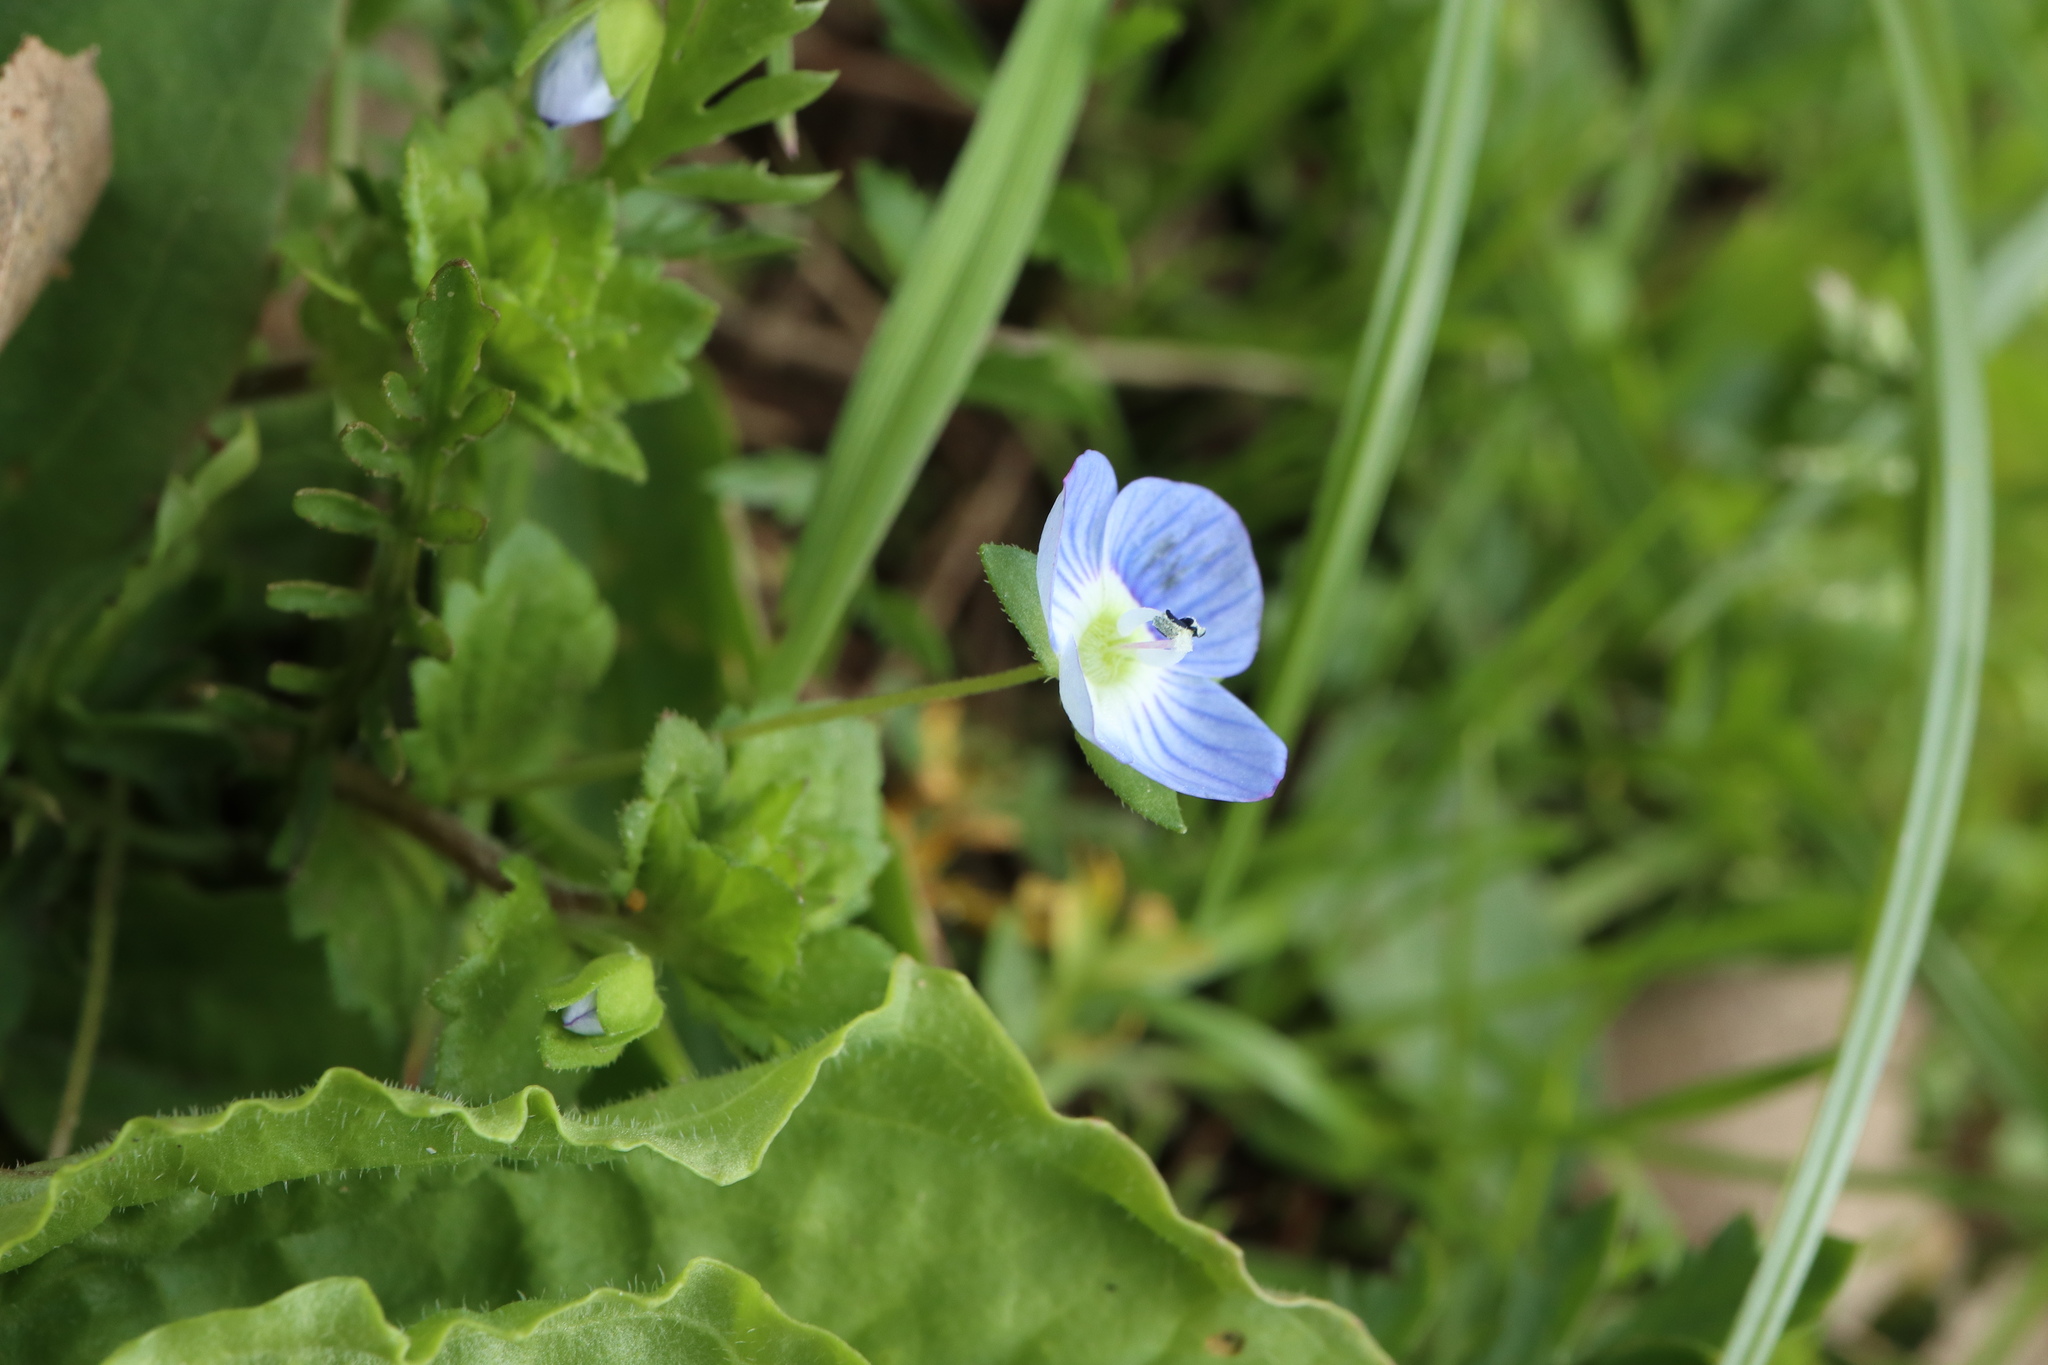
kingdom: Plantae
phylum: Tracheophyta
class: Magnoliopsida
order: Lamiales
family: Plantaginaceae
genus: Veronica
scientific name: Veronica persica
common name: Common field-speedwell
